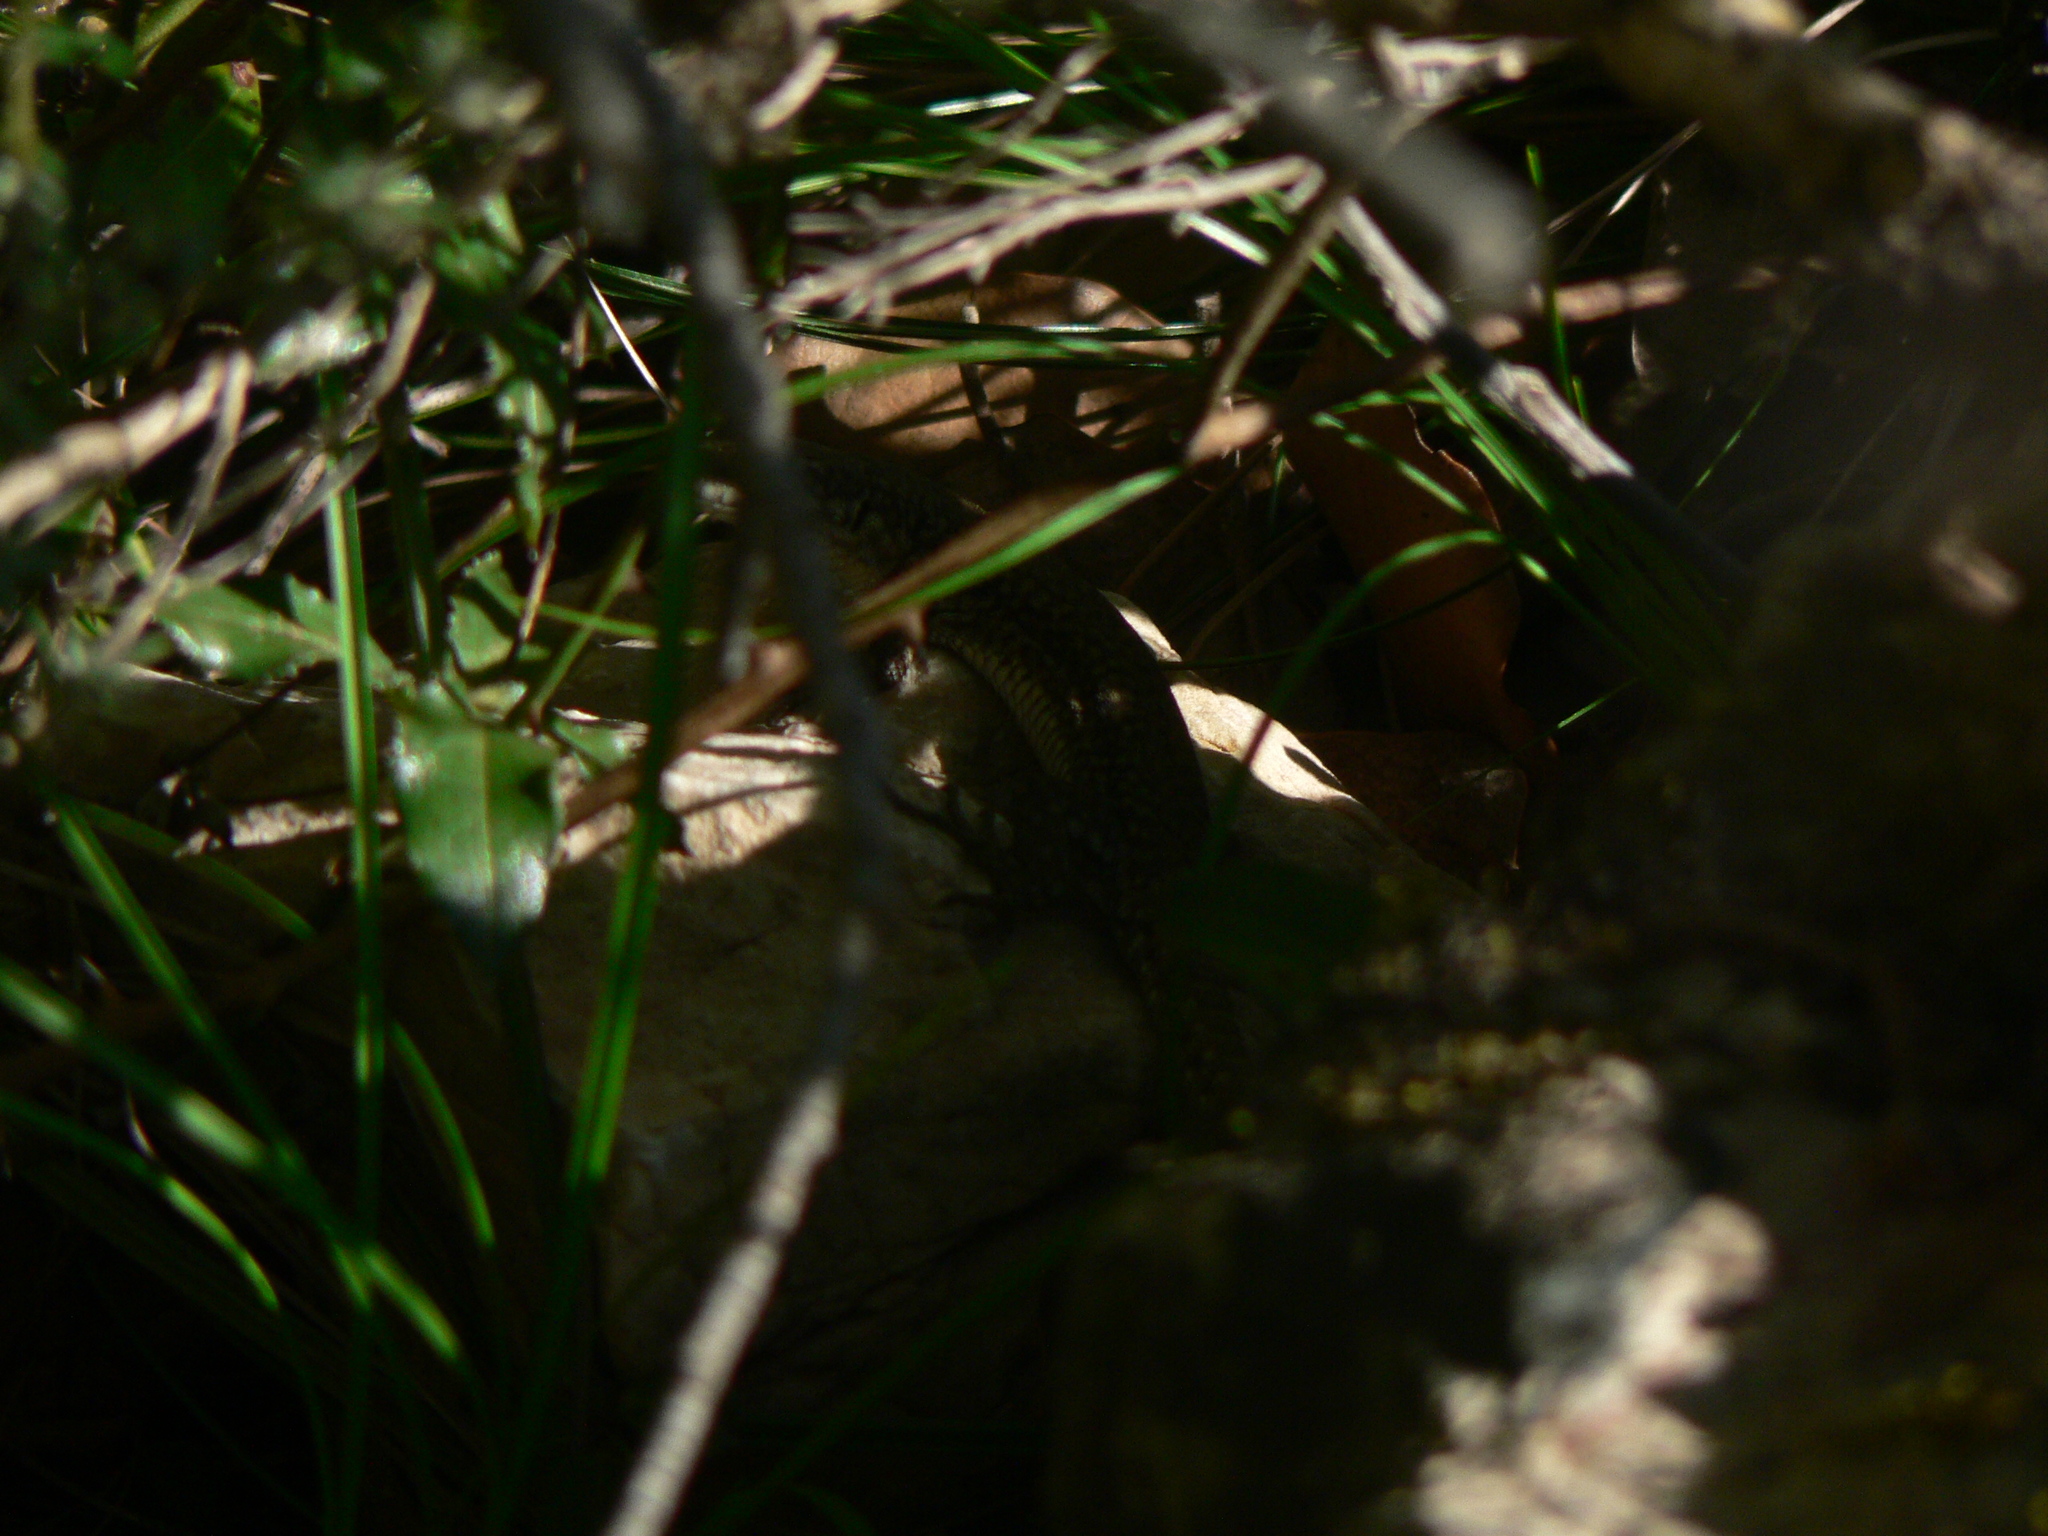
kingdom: Animalia
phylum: Chordata
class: Squamata
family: Lacertidae
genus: Podarcis
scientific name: Podarcis muralis
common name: Common wall lizard
